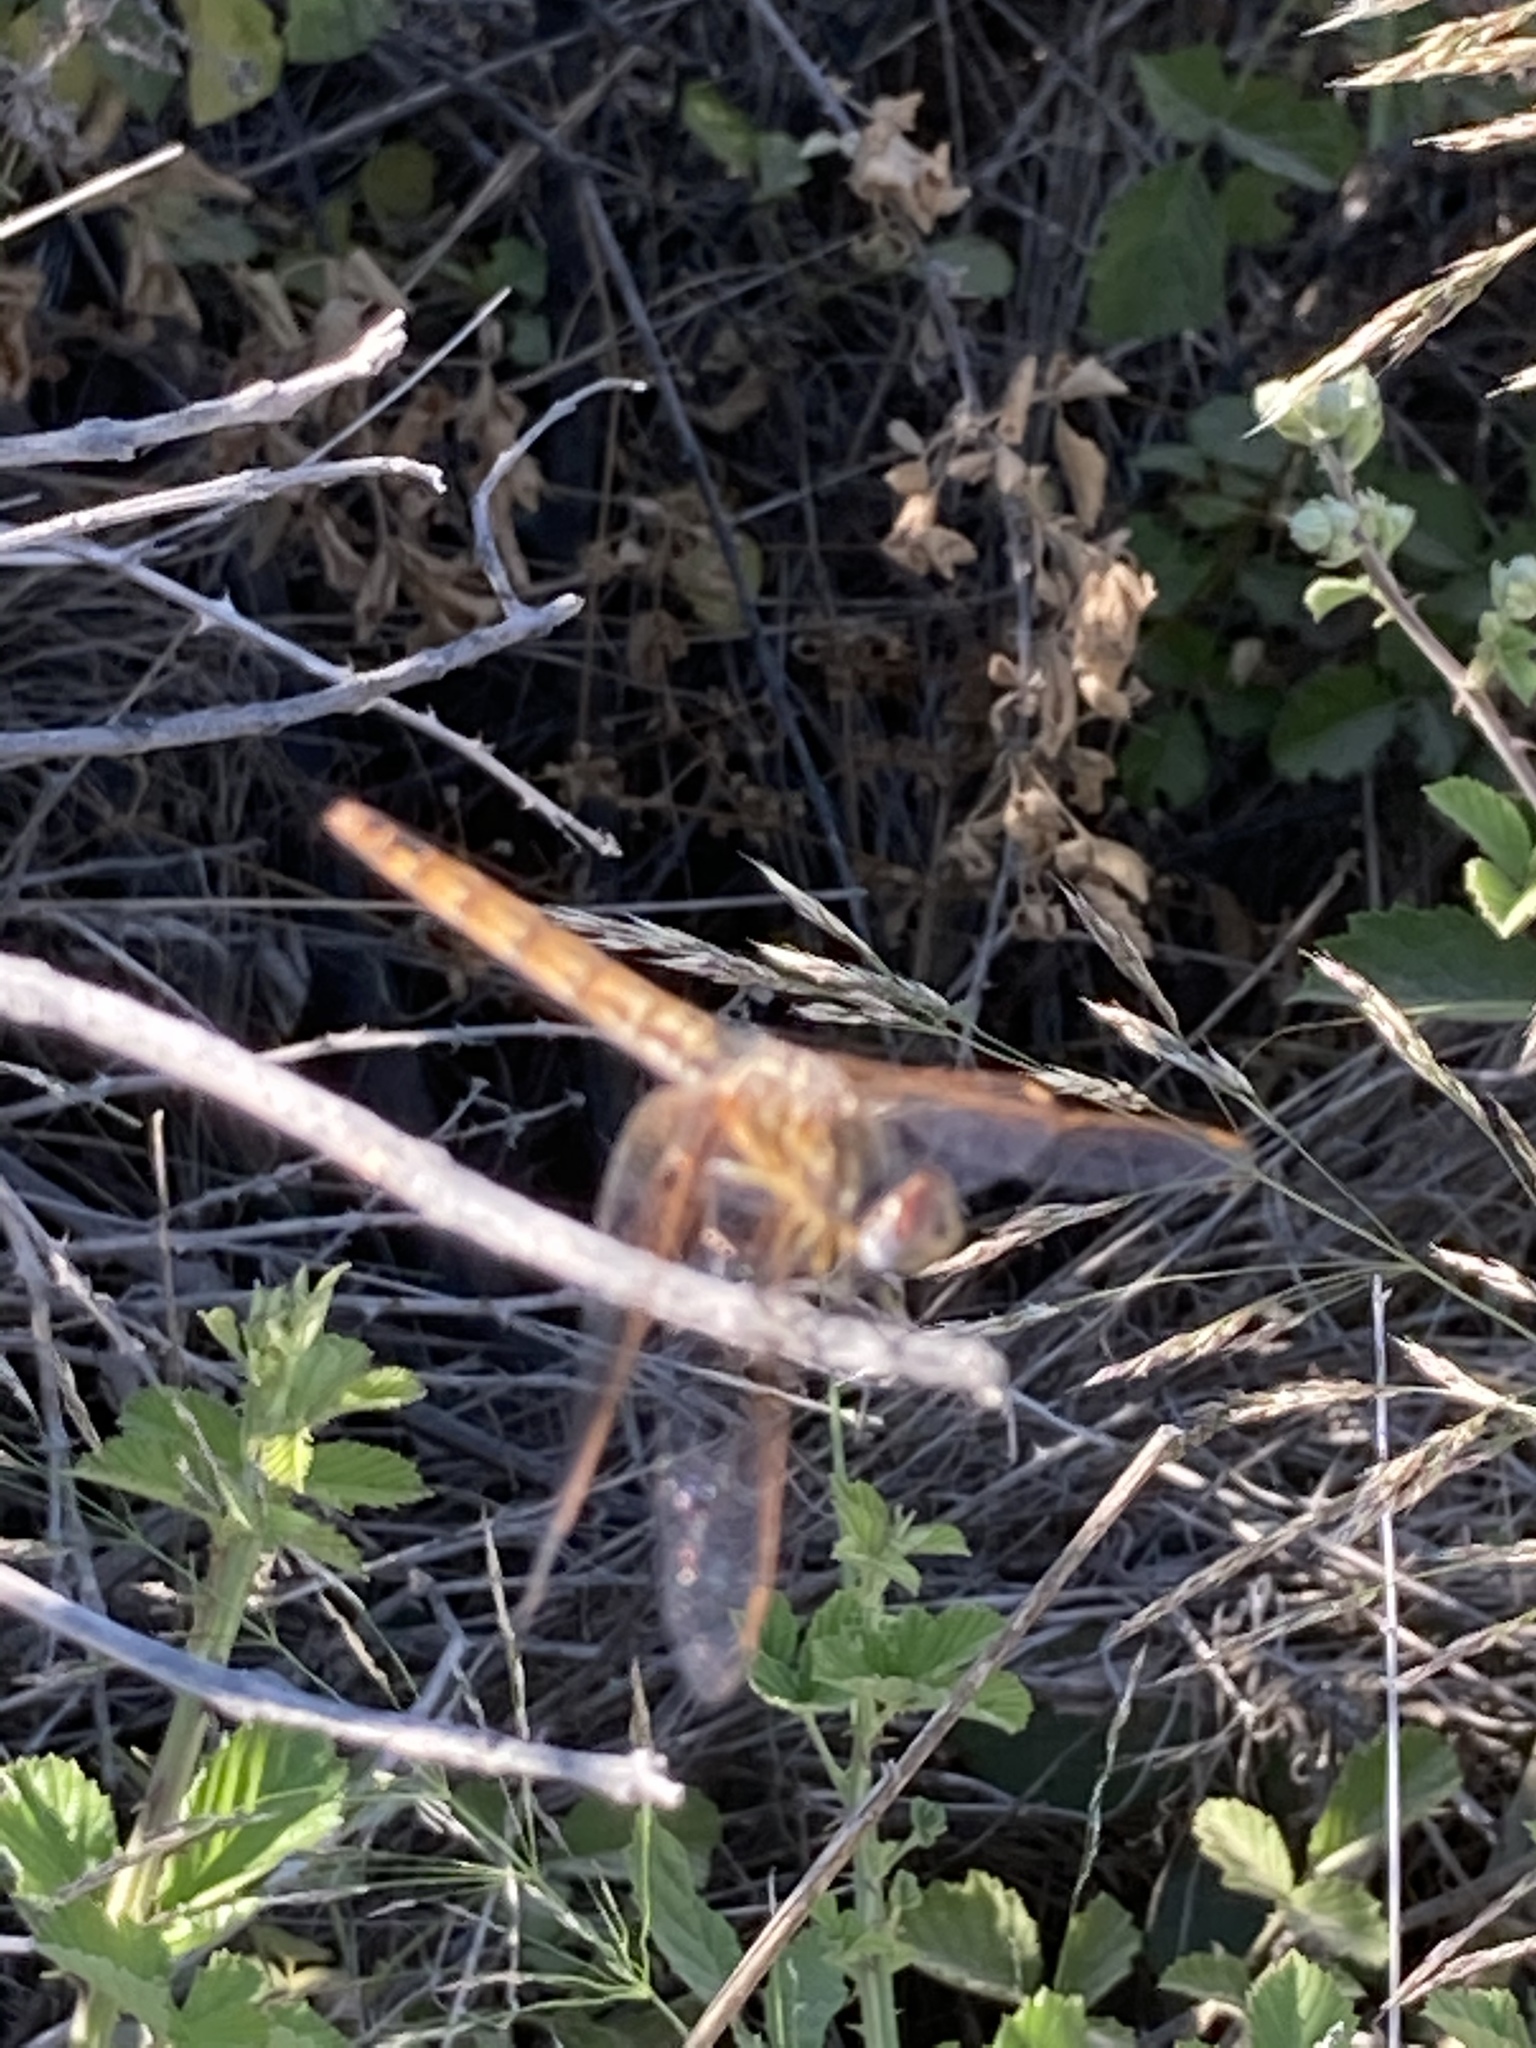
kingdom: Animalia
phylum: Arthropoda
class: Insecta
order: Odonata
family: Libellulidae
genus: Trithemis
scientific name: Trithemis annulata
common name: Violet dropwing
